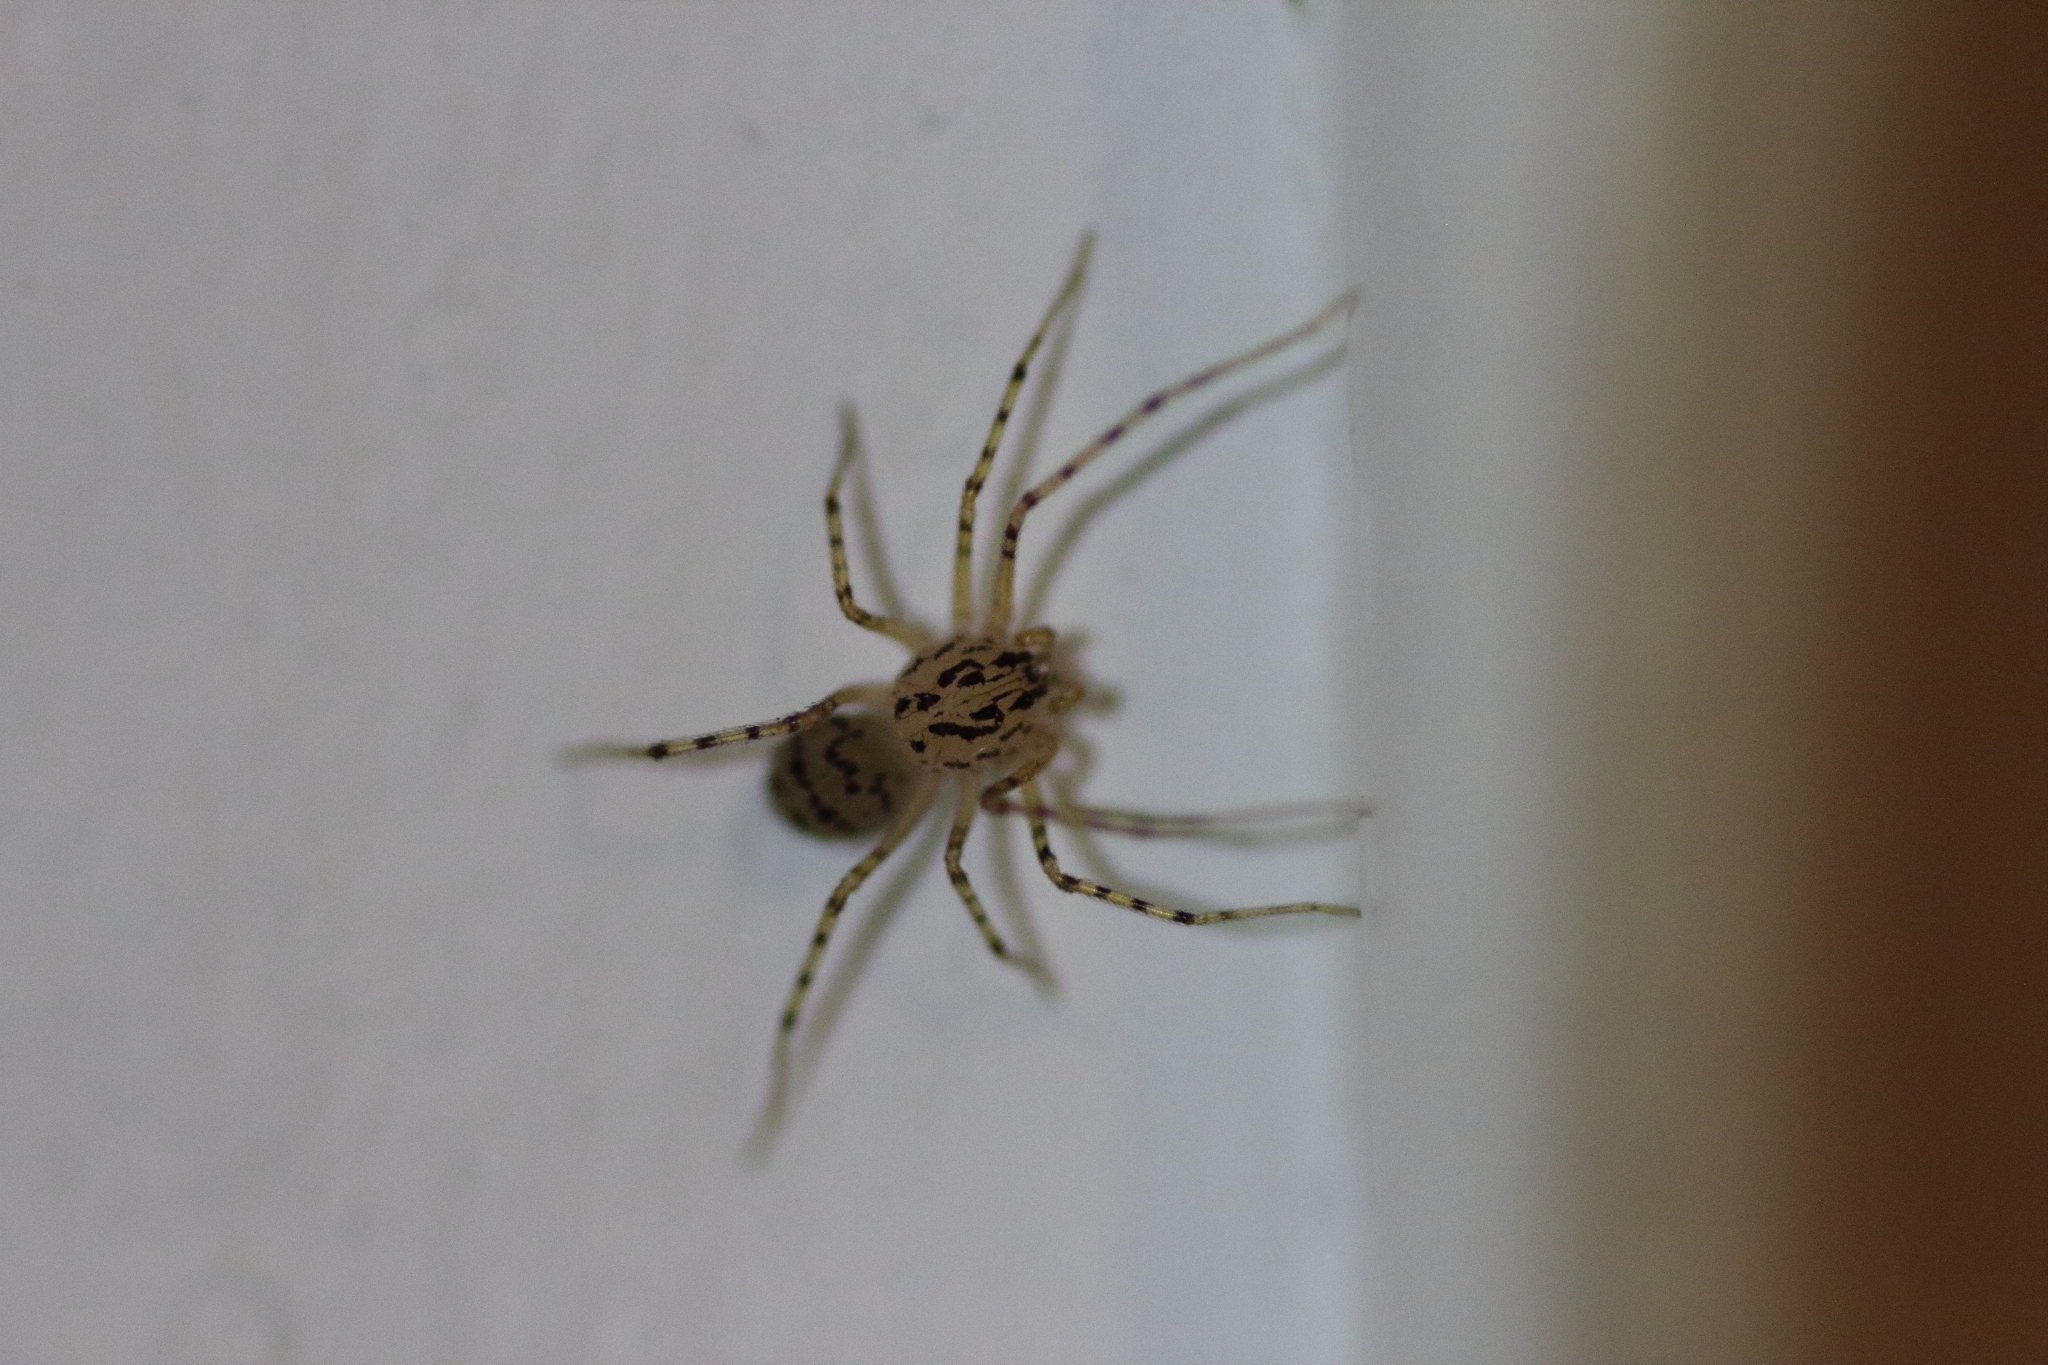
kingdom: Animalia
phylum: Arthropoda
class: Arachnida
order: Araneae
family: Scytodidae
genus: Scytodes
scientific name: Scytodes thoracica
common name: Spitting spider
